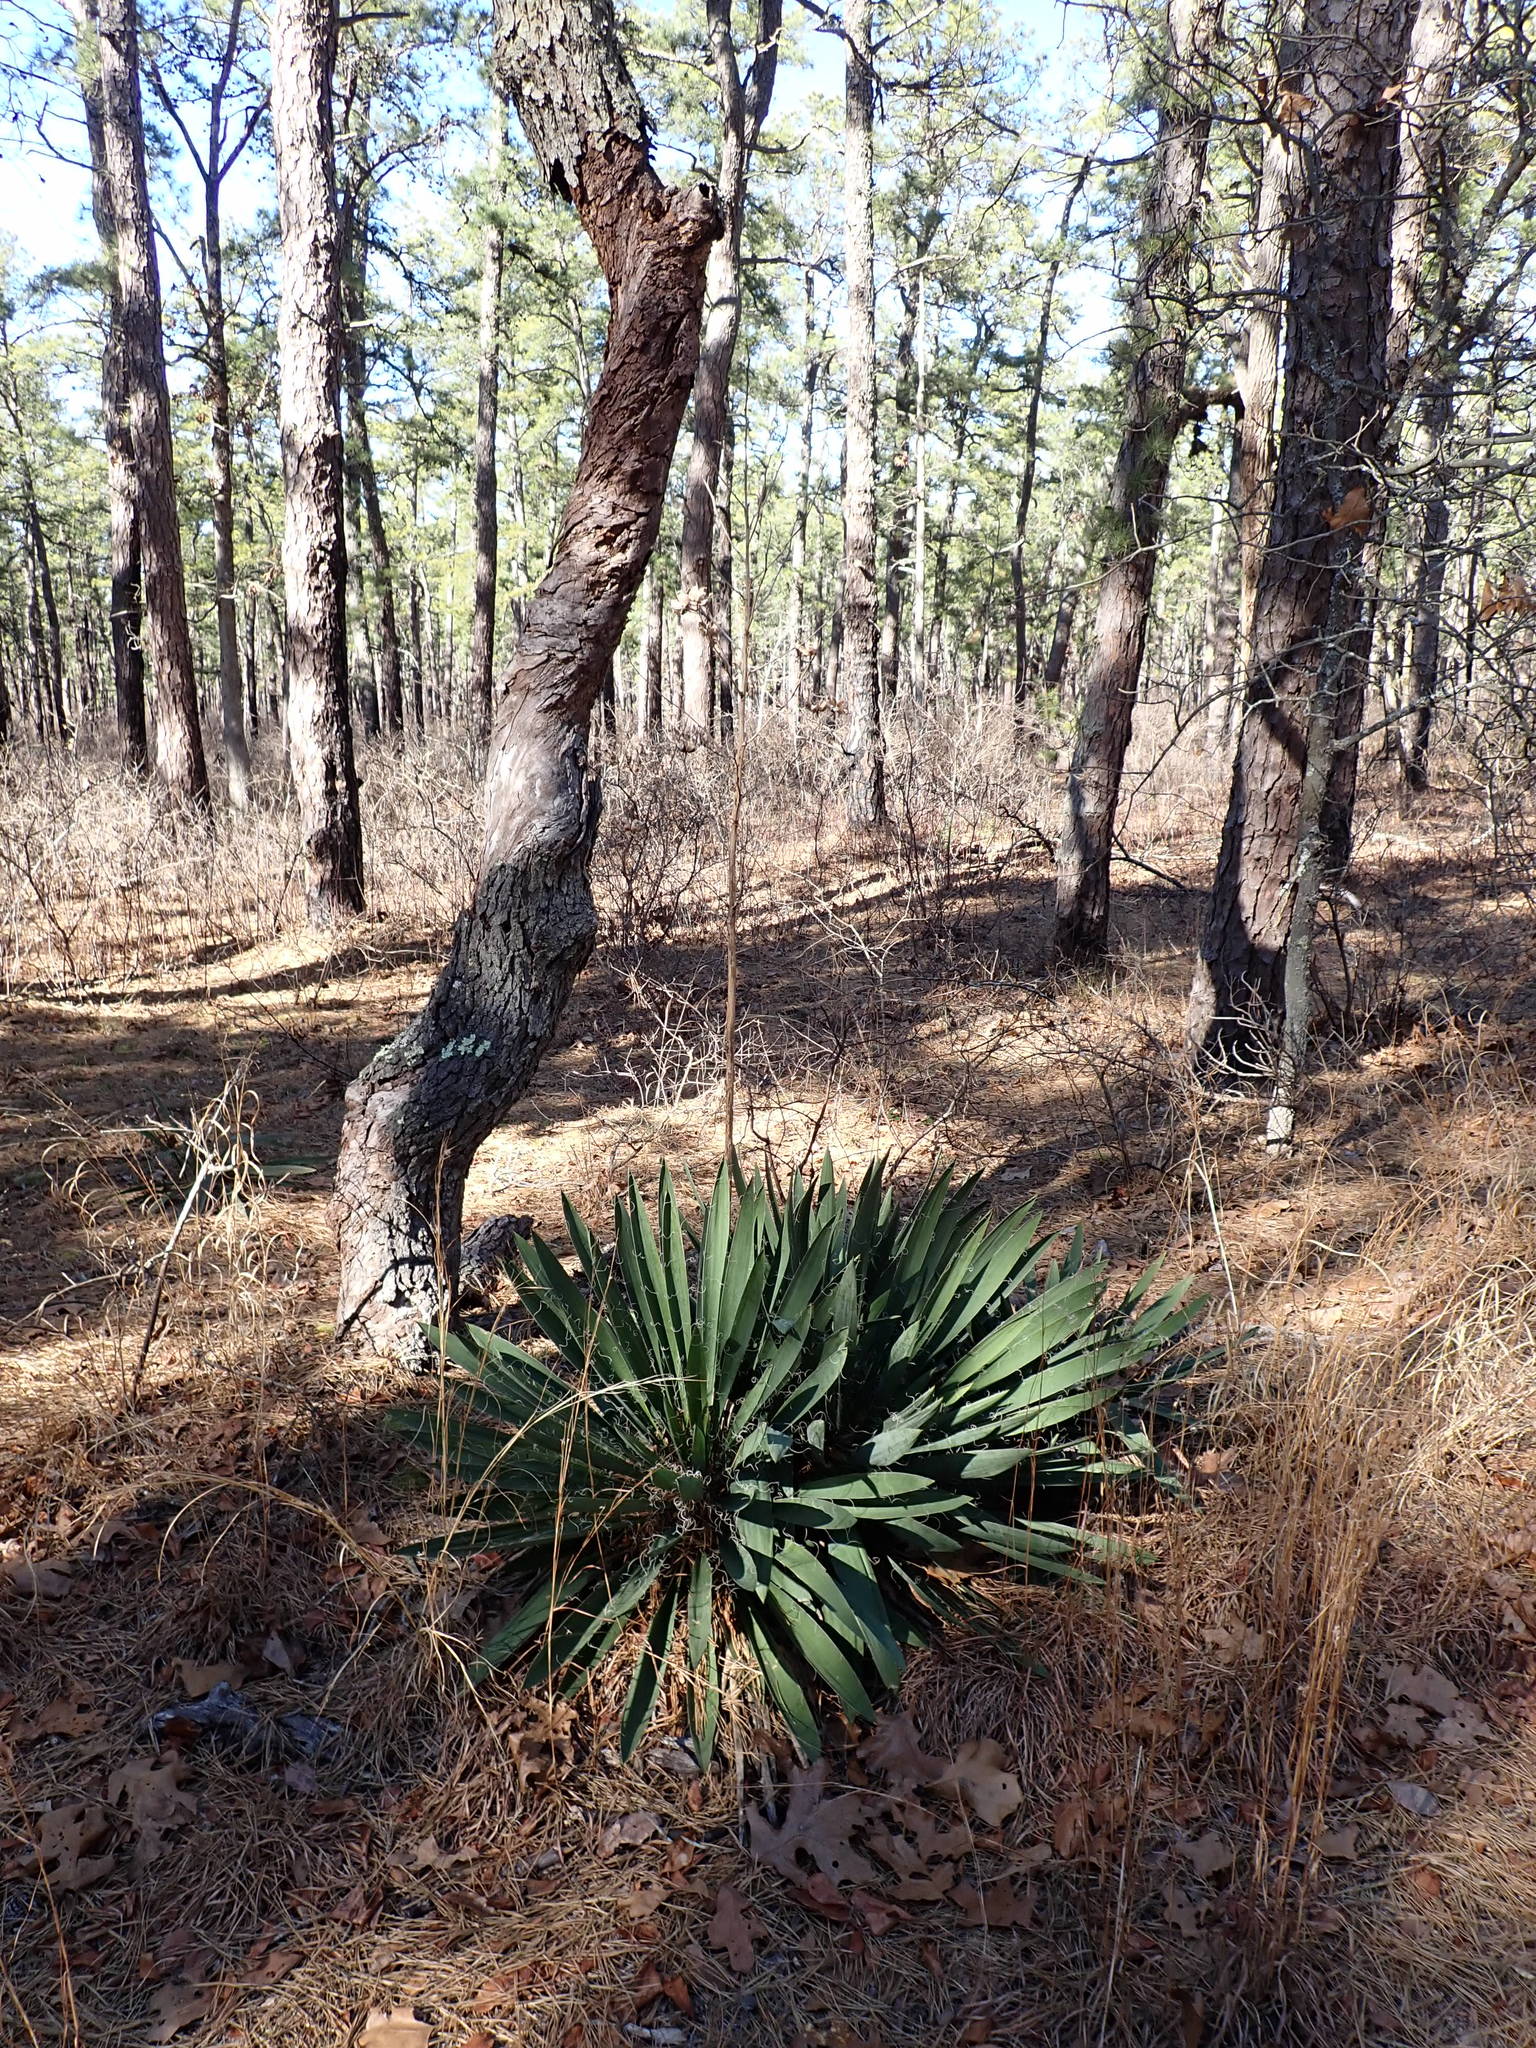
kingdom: Plantae
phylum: Tracheophyta
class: Liliopsida
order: Asparagales
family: Asparagaceae
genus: Yucca
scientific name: Yucca filamentosa
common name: Adam's-needle
